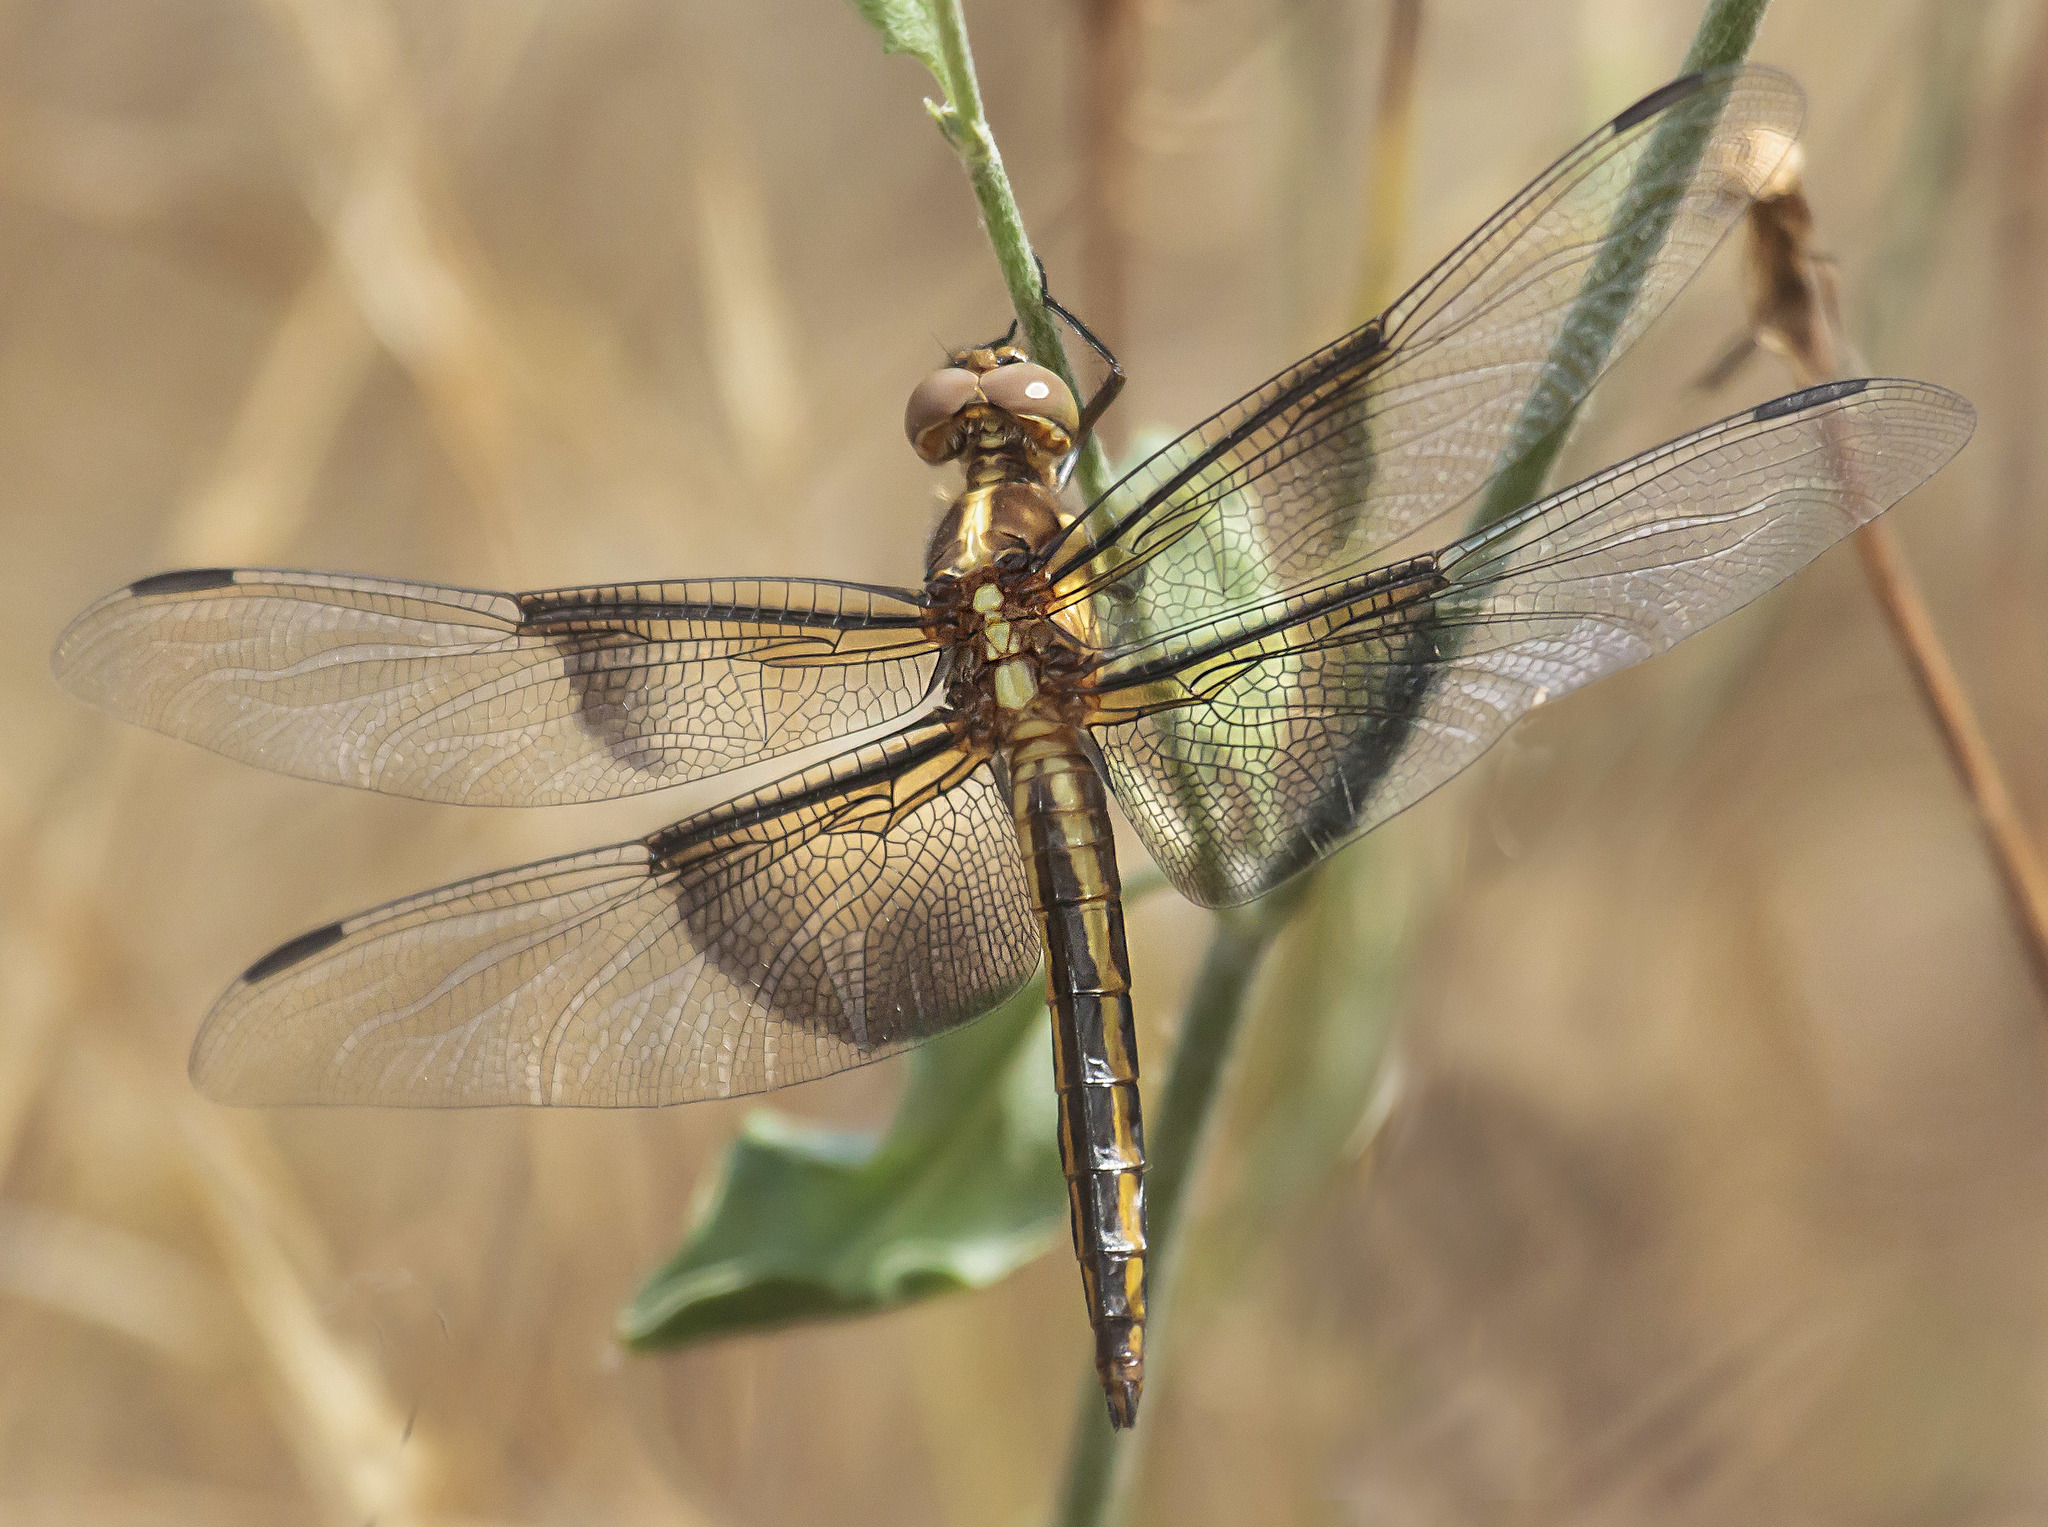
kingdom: Animalia
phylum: Arthropoda
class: Insecta
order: Odonata
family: Libellulidae
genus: Libellula
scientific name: Libellula luctuosa
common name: Widow skimmer
